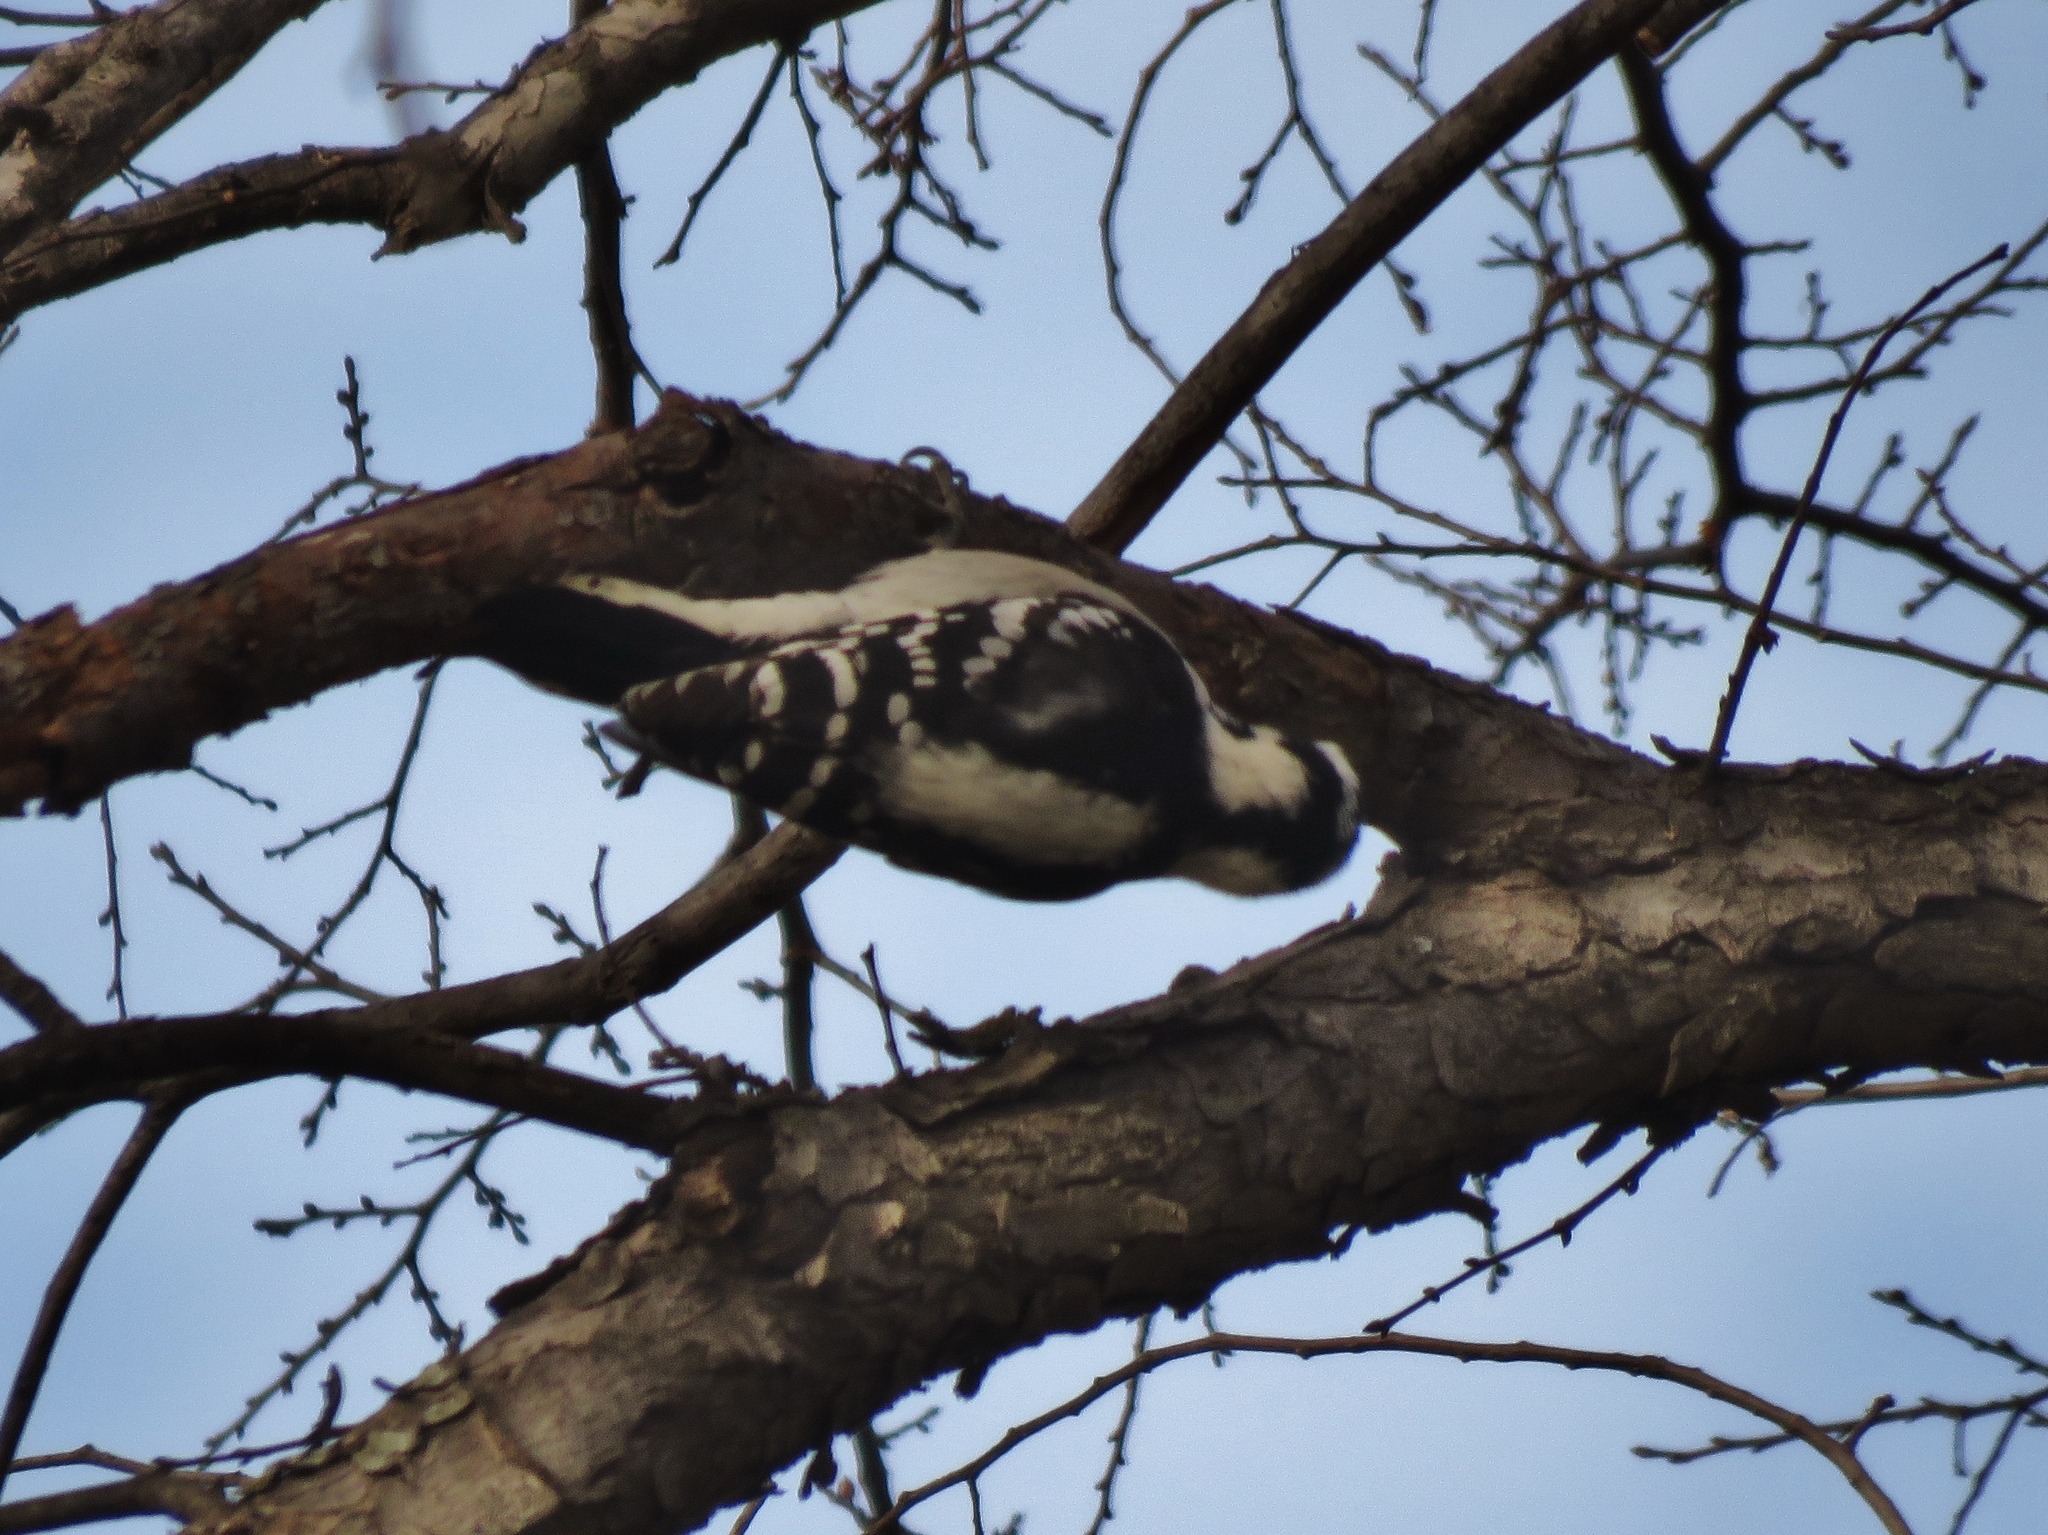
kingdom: Animalia
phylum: Chordata
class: Aves
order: Piciformes
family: Picidae
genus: Dryobates
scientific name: Dryobates pubescens
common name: Downy woodpecker
